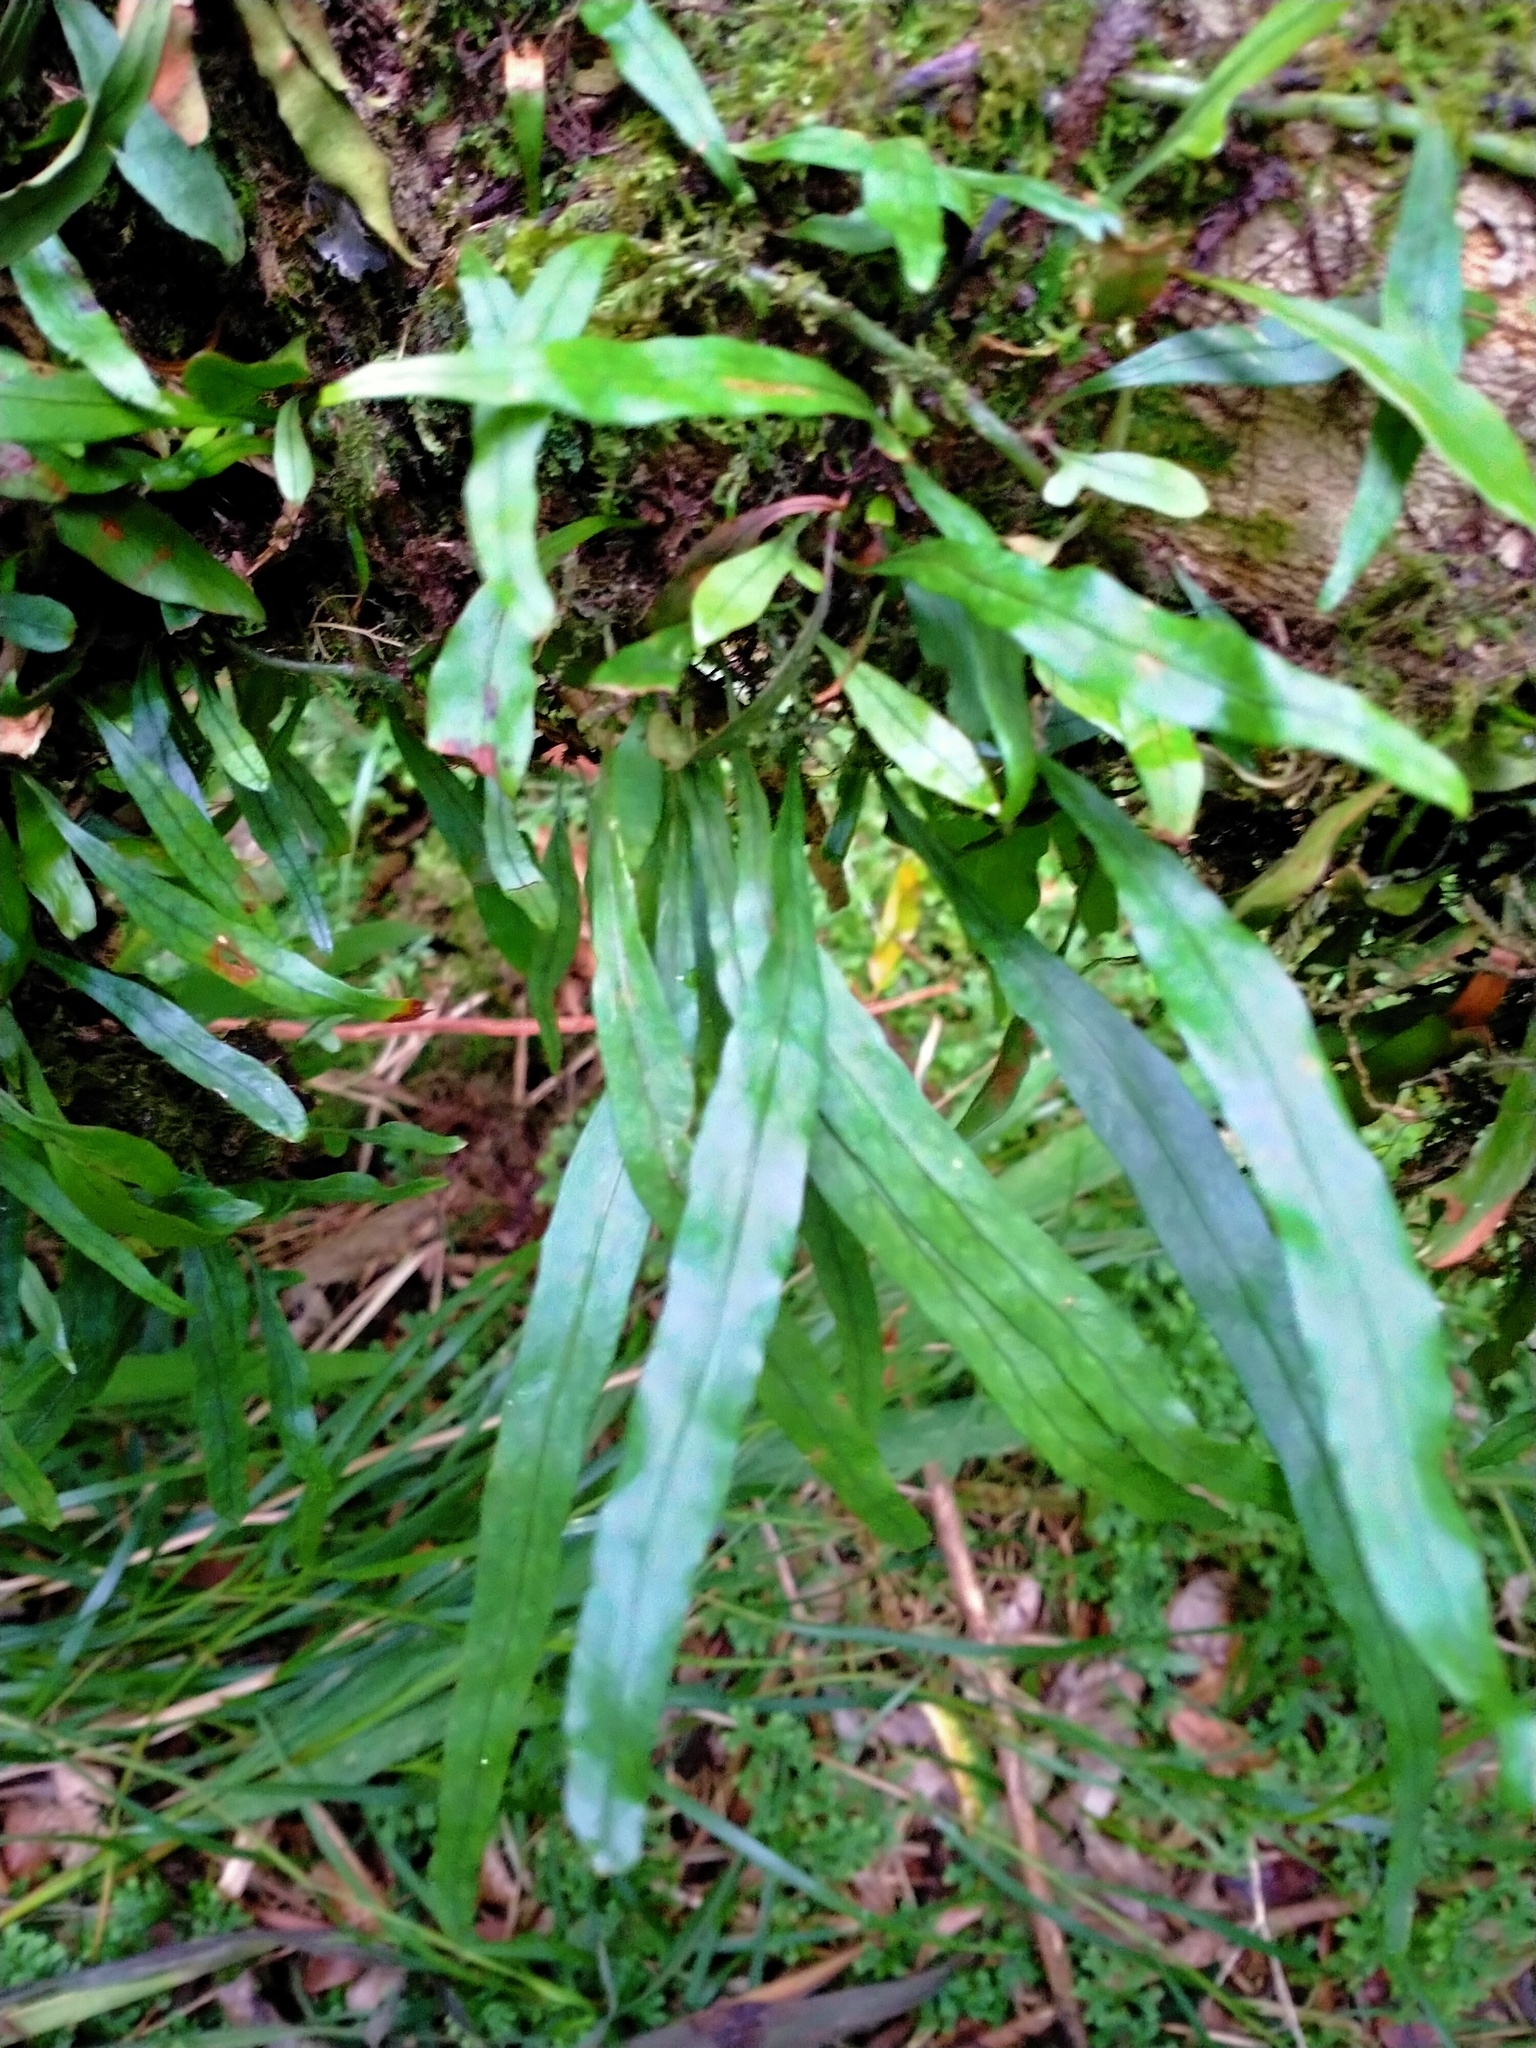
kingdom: Plantae
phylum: Tracheophyta
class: Polypodiopsida
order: Polypodiales
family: Polypodiaceae
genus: Lecanopteris
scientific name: Lecanopteris scandens
